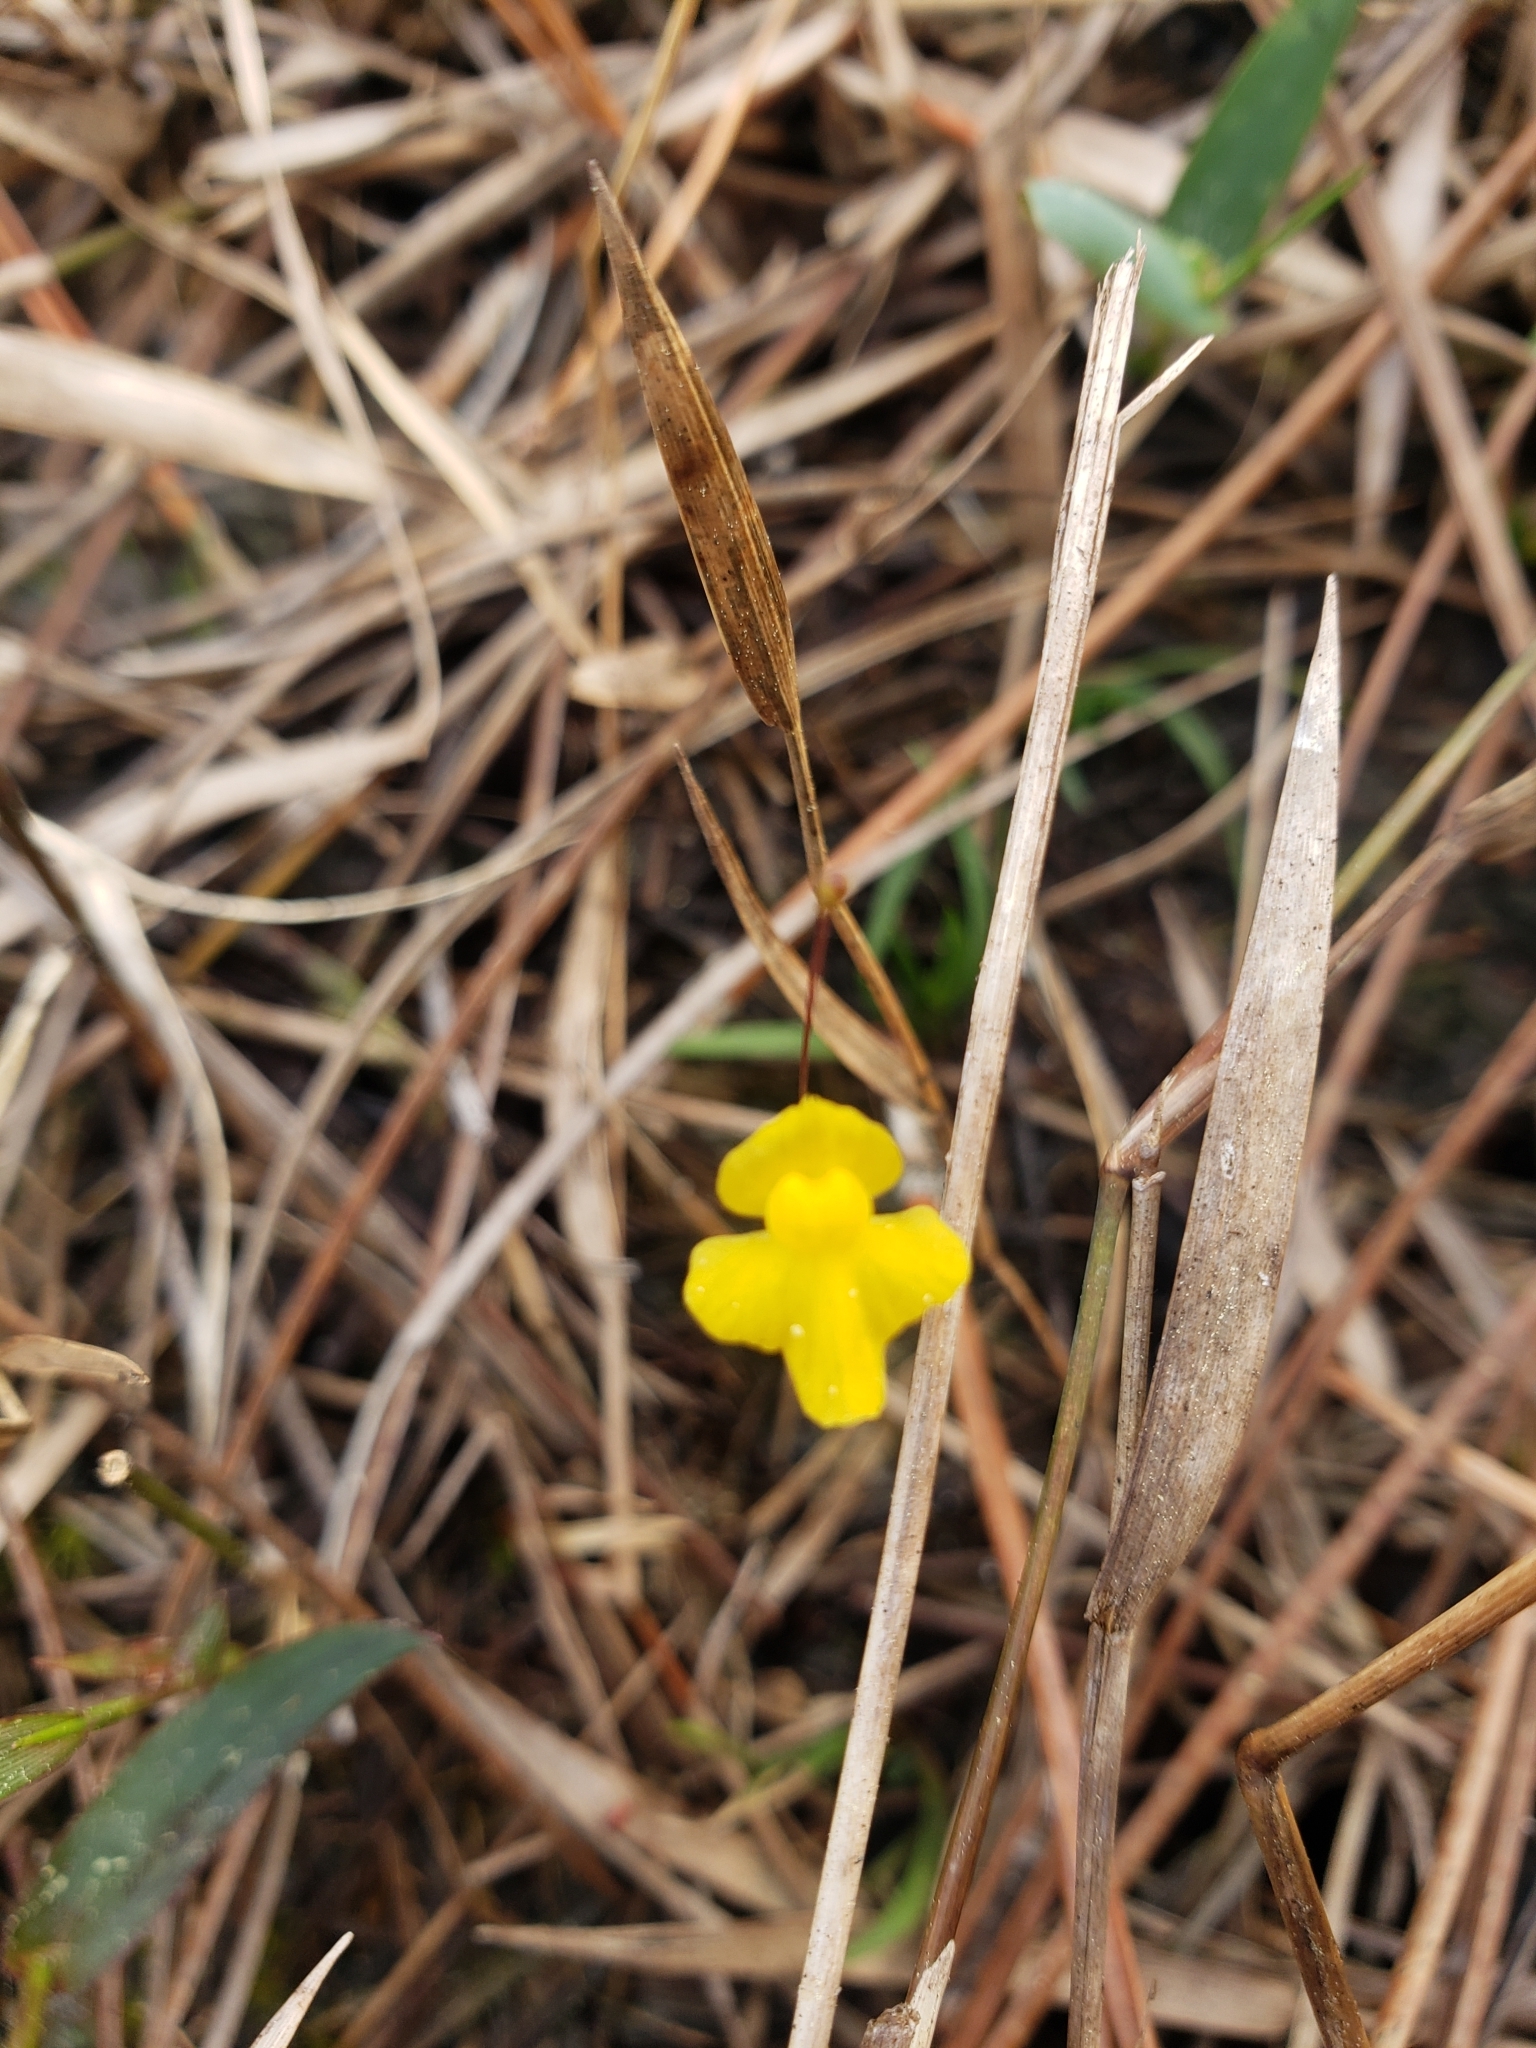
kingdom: Plantae
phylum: Tracheophyta
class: Magnoliopsida
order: Lamiales
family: Lentibulariaceae
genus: Utricularia
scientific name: Utricularia subulata
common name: Tiny bladderwort
